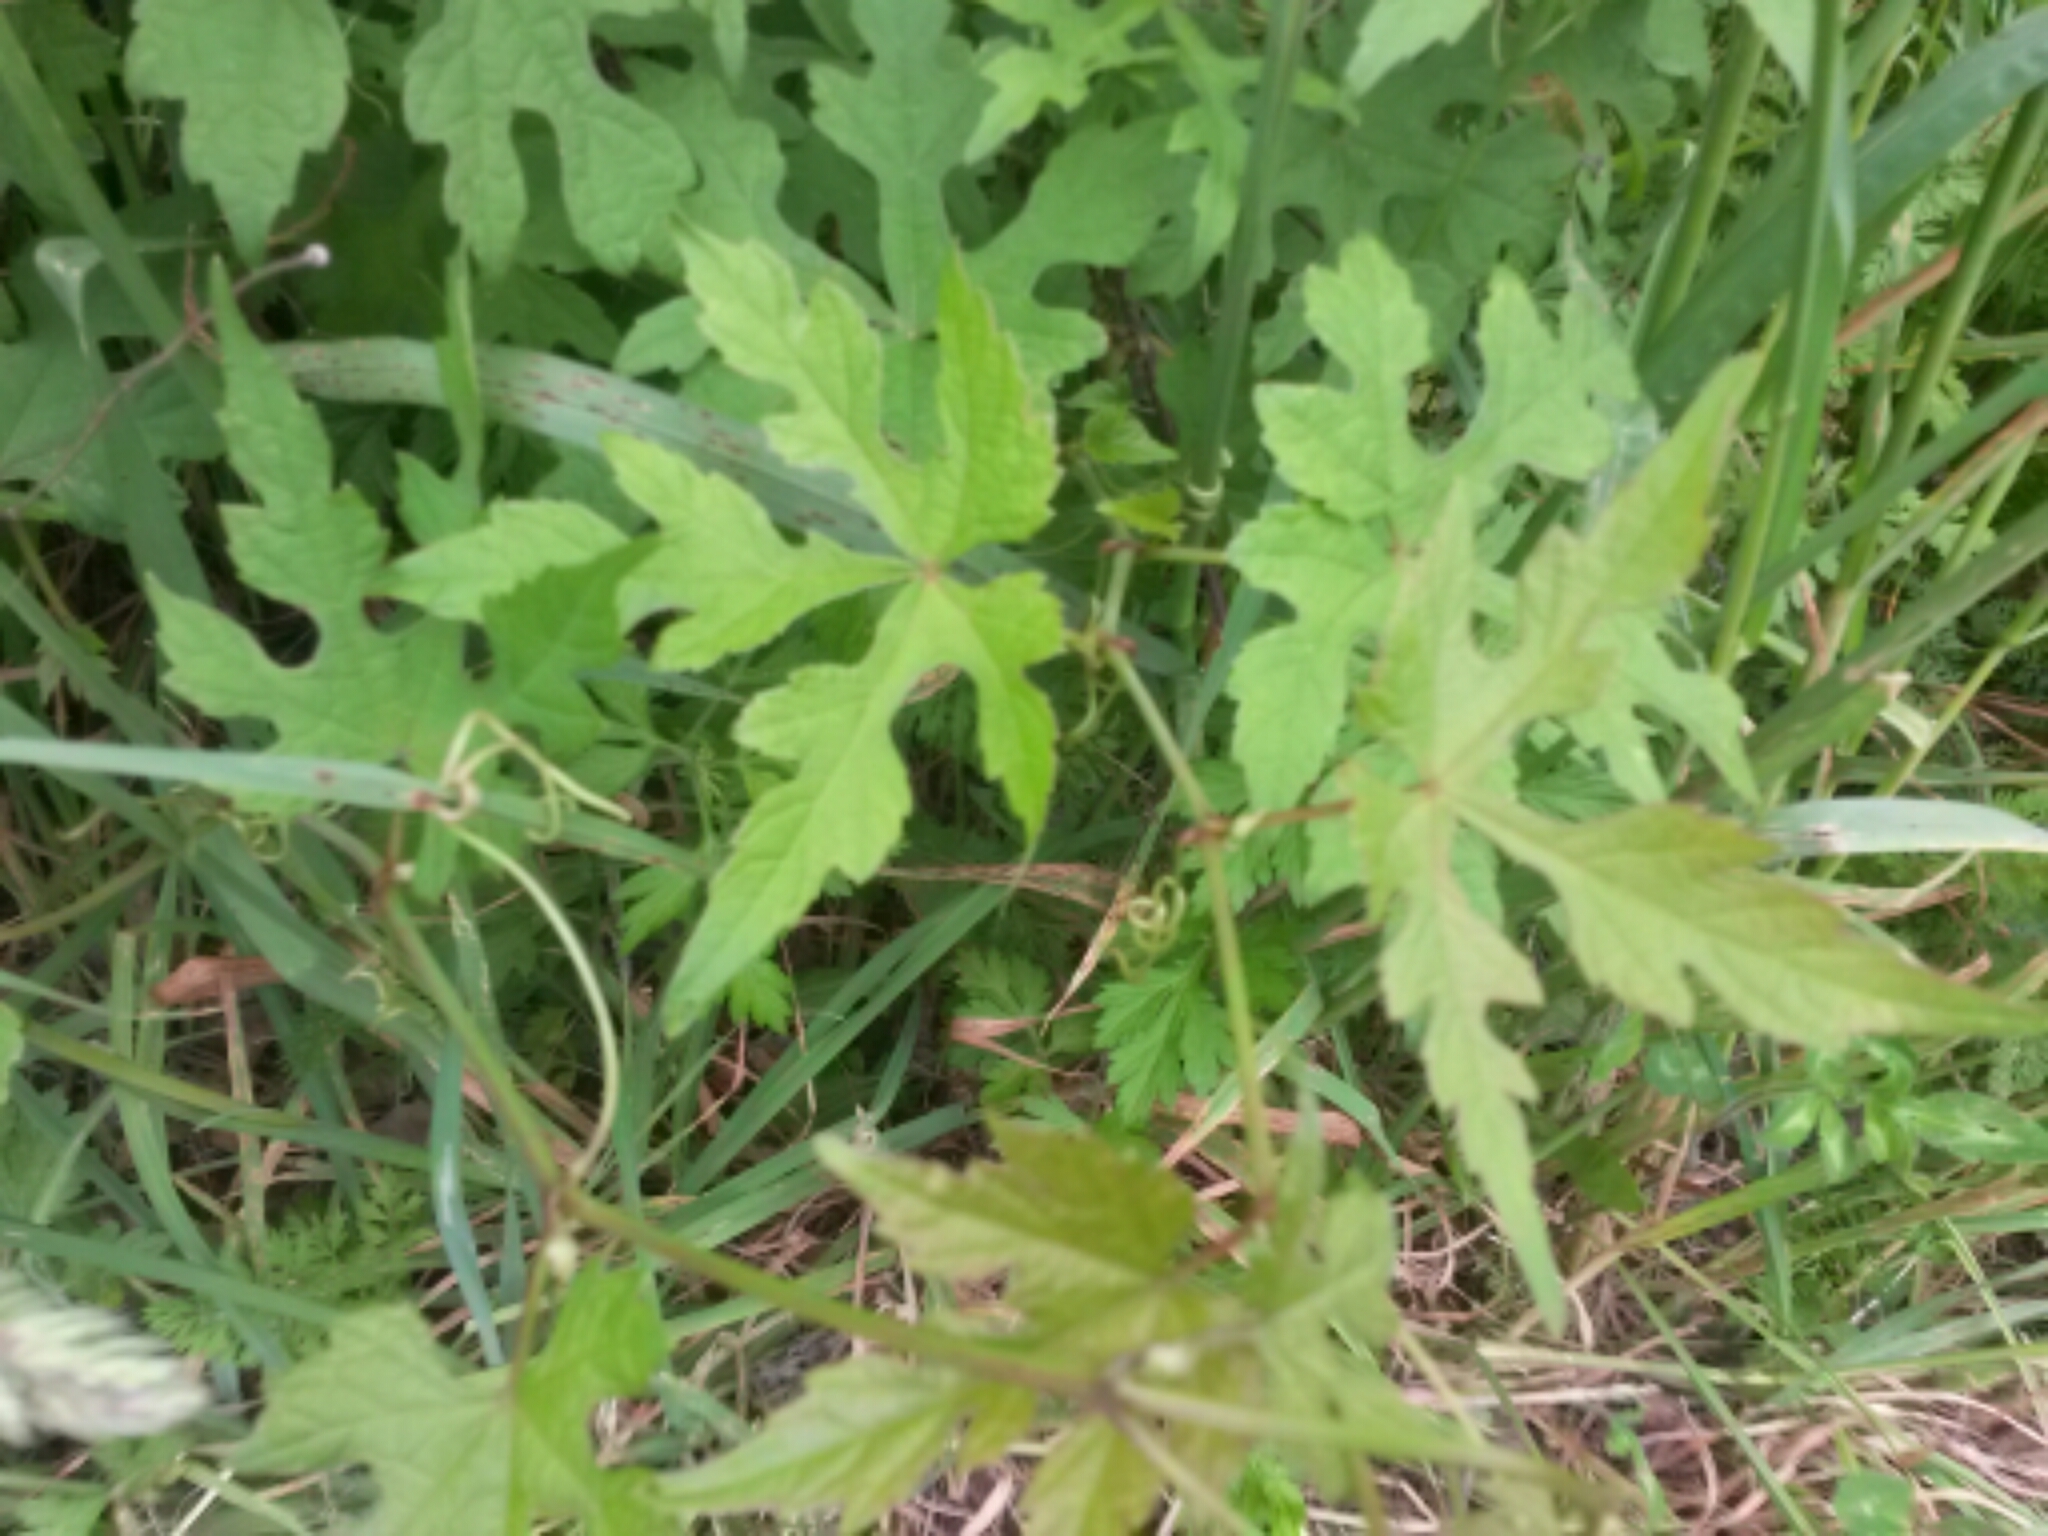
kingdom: Plantae
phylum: Tracheophyta
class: Magnoliopsida
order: Vitales
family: Vitaceae
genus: Ampelopsis
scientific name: Ampelopsis glandulosa
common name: Amur peppervine
